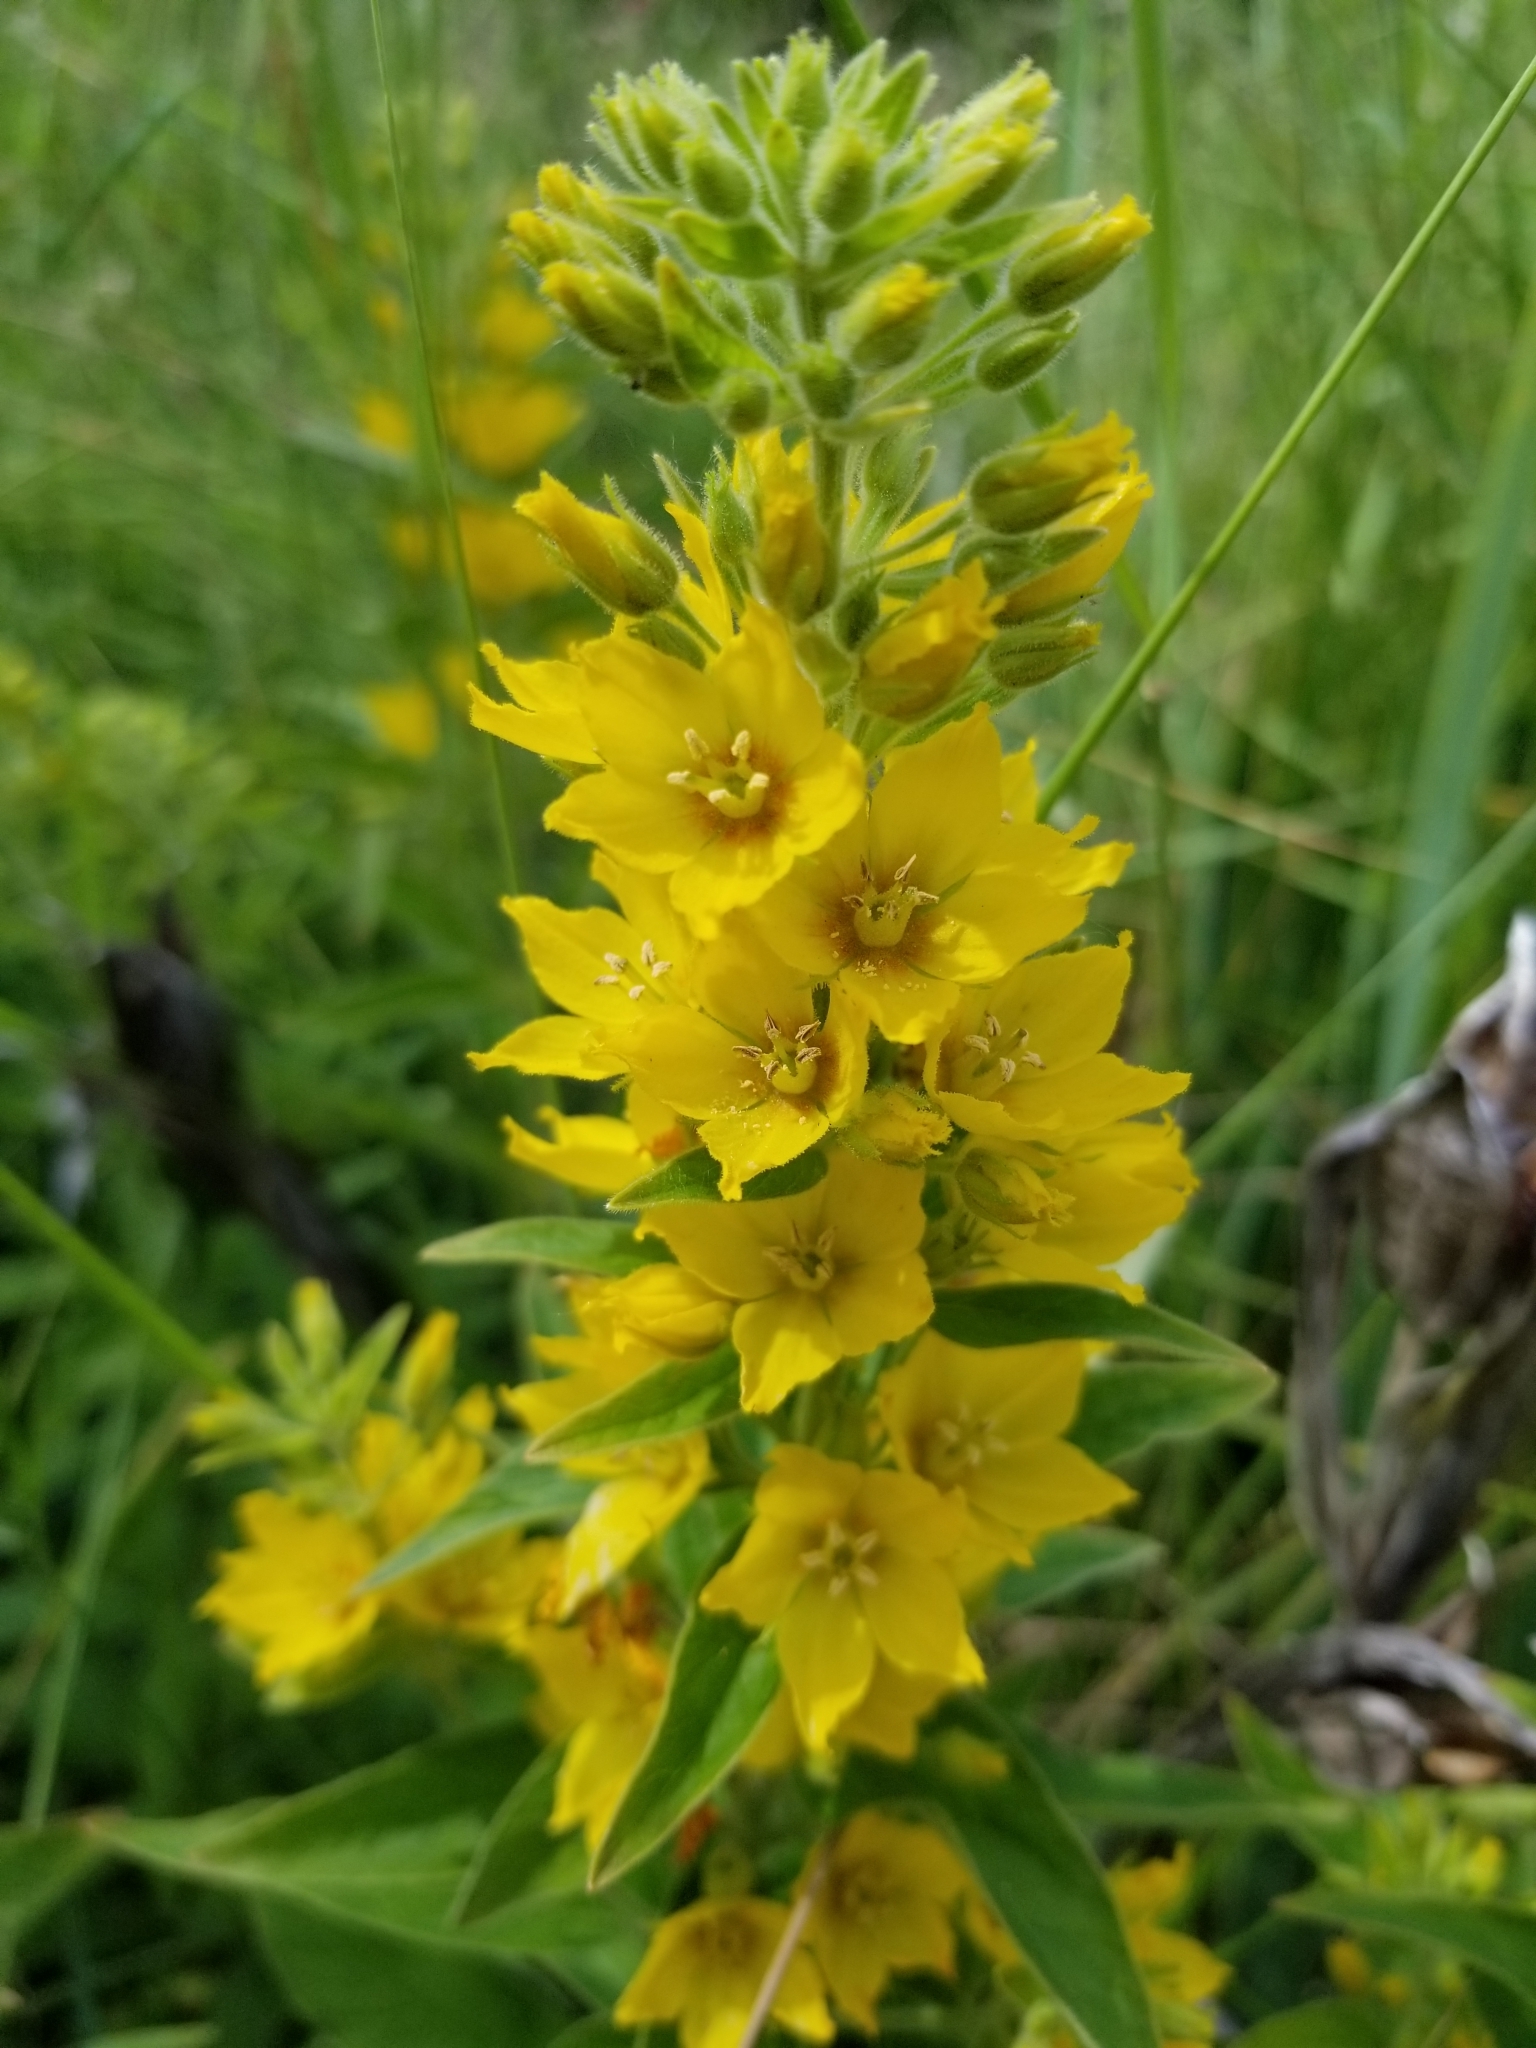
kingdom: Plantae
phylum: Tracheophyta
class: Magnoliopsida
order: Ericales
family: Primulaceae
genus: Lysimachia
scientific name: Lysimachia punctata
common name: Dotted loosestrife
